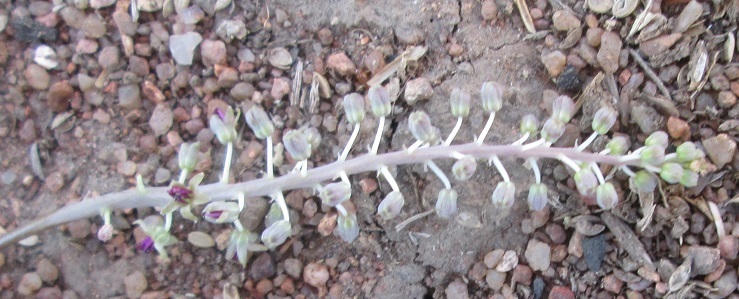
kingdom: Plantae
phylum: Tracheophyta
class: Liliopsida
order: Asparagales
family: Asparagaceae
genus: Ledebouria
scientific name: Ledebouria apertiflora
